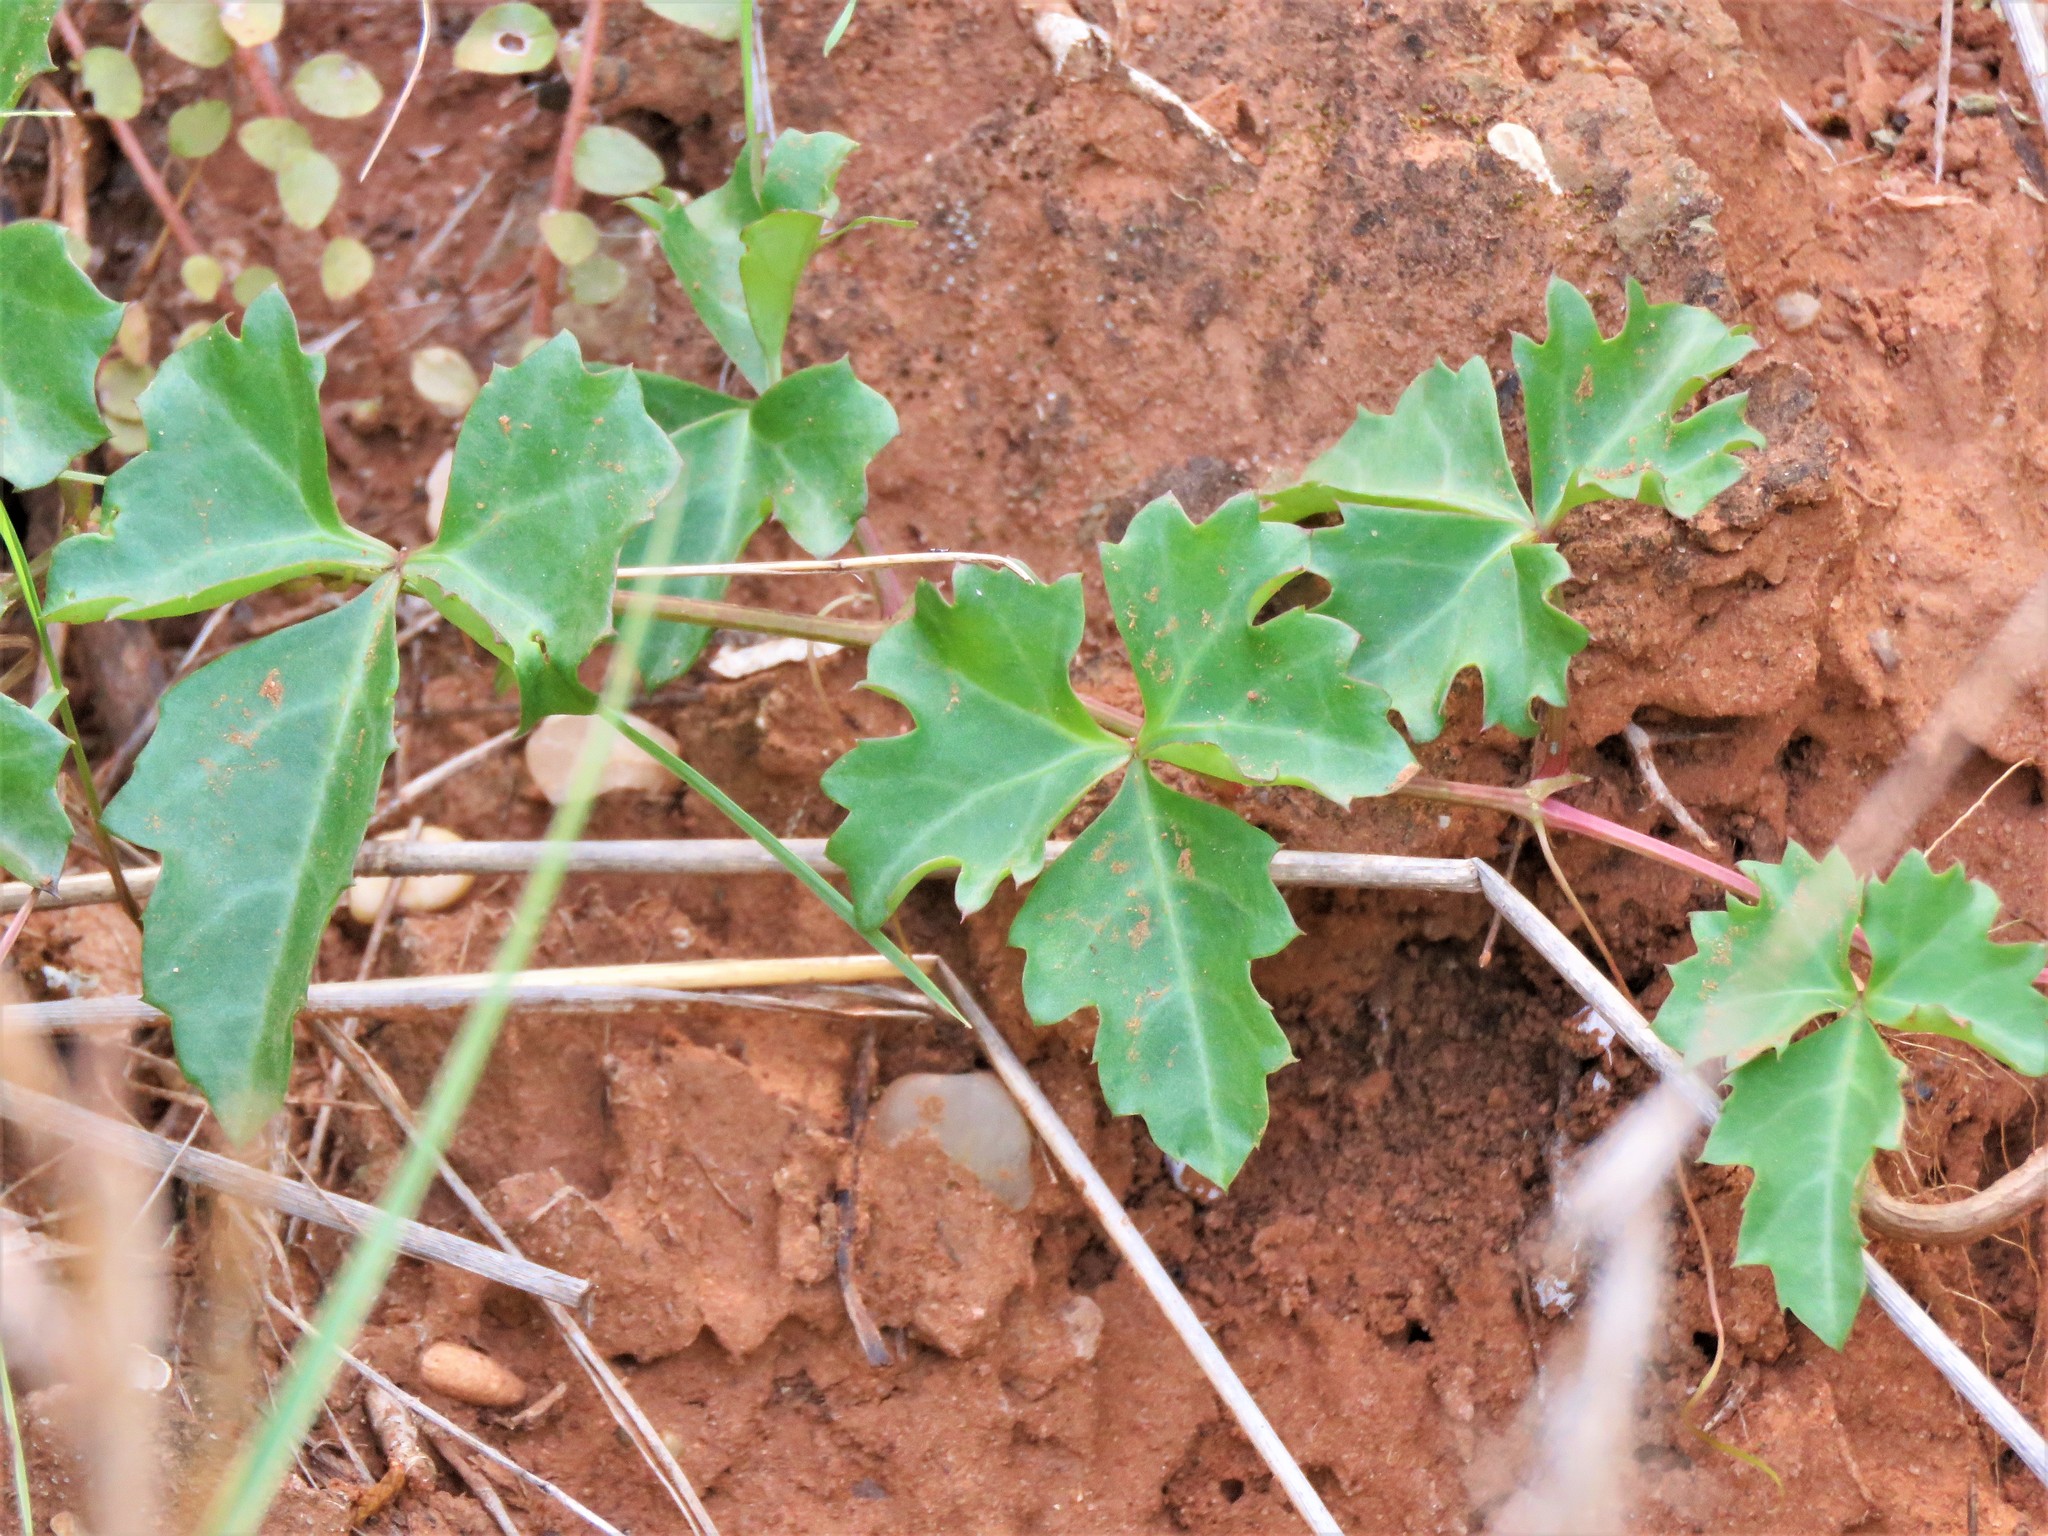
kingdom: Plantae
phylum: Tracheophyta
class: Magnoliopsida
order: Vitales
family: Vitaceae
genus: Cissus
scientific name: Cissus trifoliata
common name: Vine-sorrel
